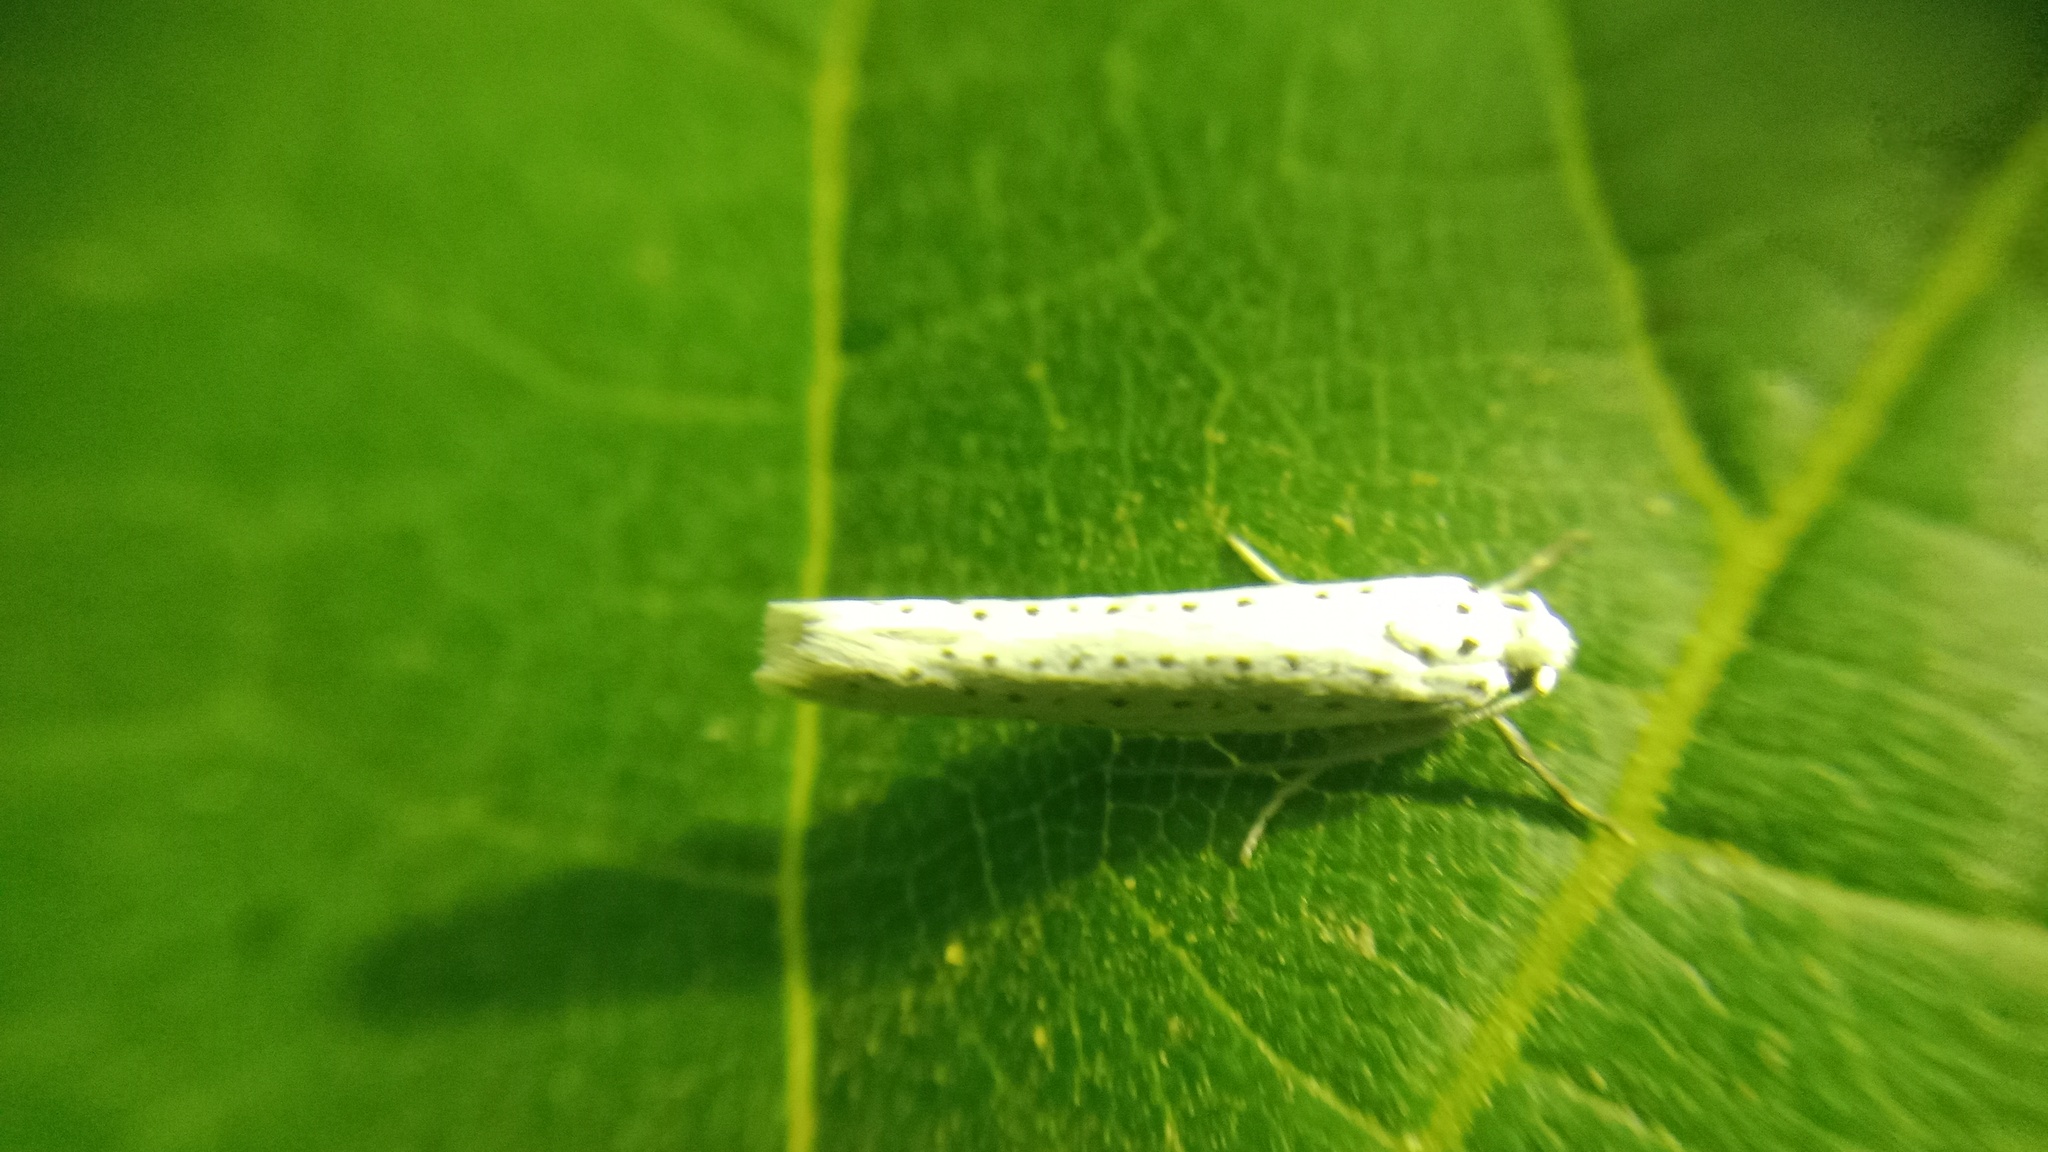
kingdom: Animalia
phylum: Arthropoda
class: Insecta
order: Lepidoptera
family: Yponomeutidae
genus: Yponomeuta
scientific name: Yponomeuta evonymella
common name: Bird-cherry ermine
